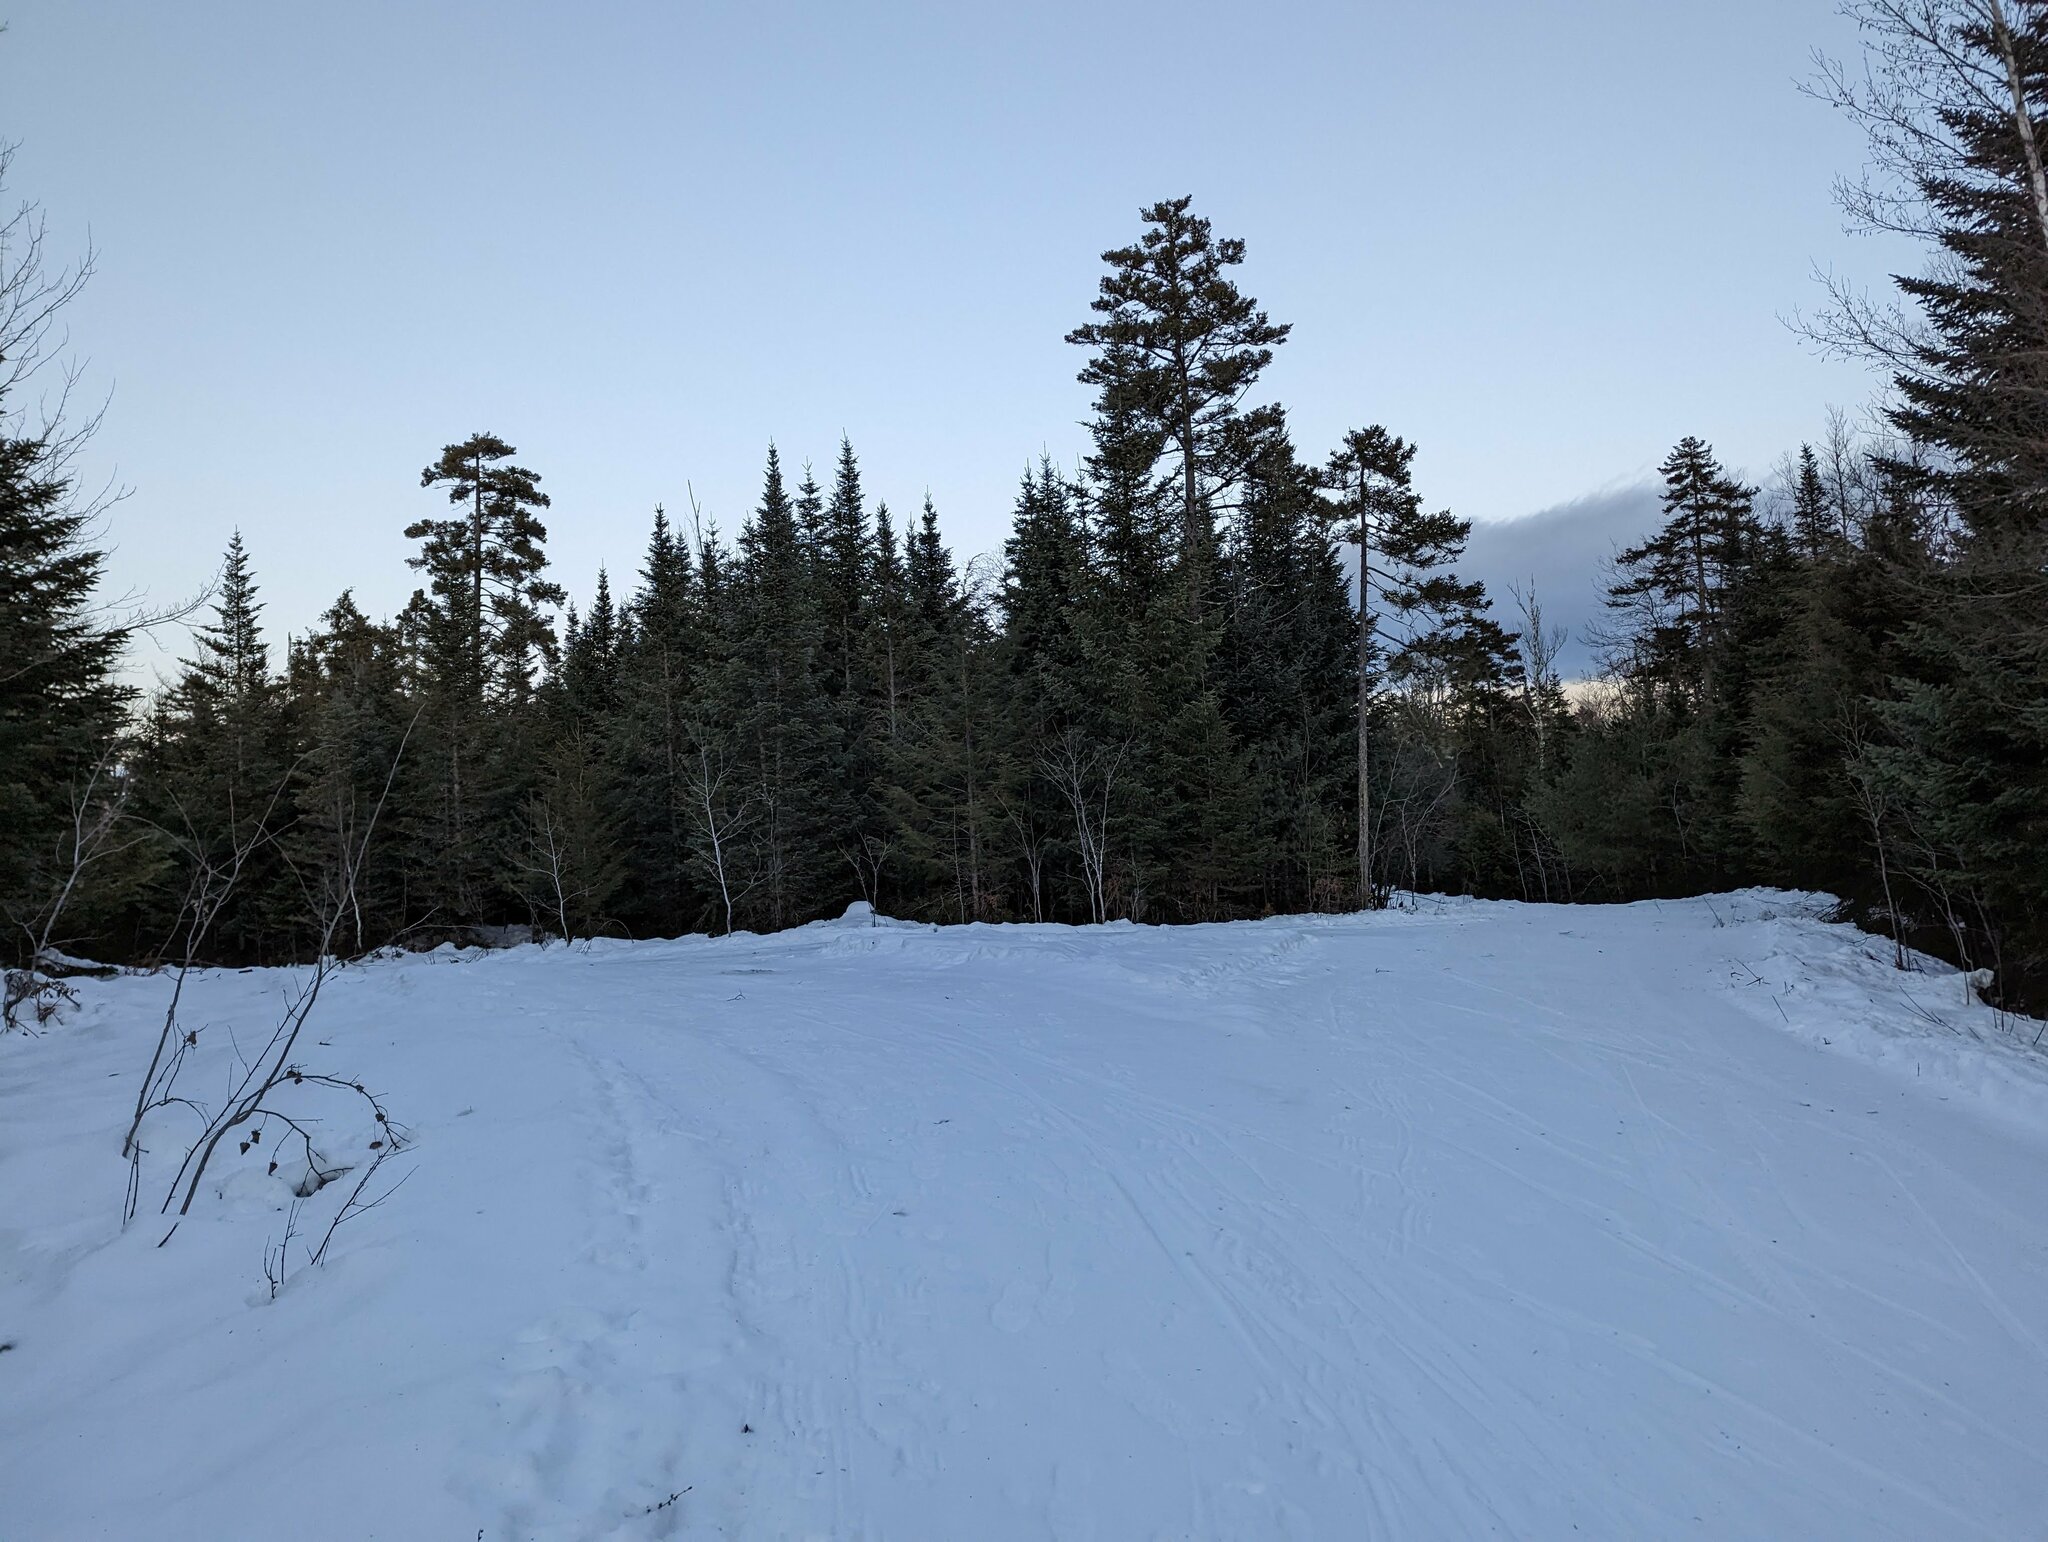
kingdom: Plantae
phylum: Tracheophyta
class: Pinopsida
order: Pinales
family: Pinaceae
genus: Pinus
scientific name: Pinus strobus
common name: Weymouth pine
